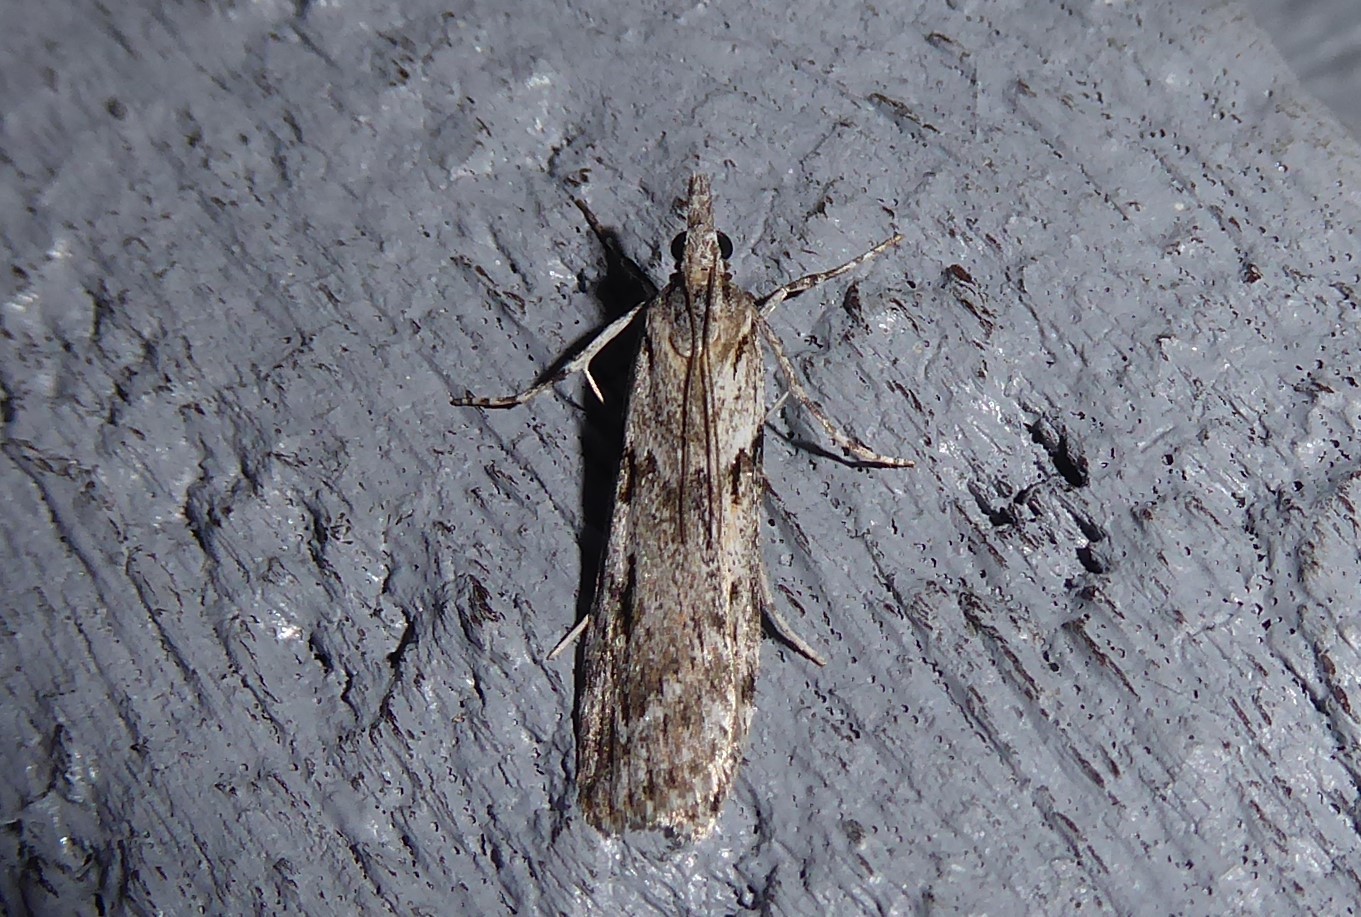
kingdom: Animalia
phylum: Arthropoda
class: Insecta
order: Lepidoptera
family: Crambidae
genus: Scoparia
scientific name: Scoparia halopis
